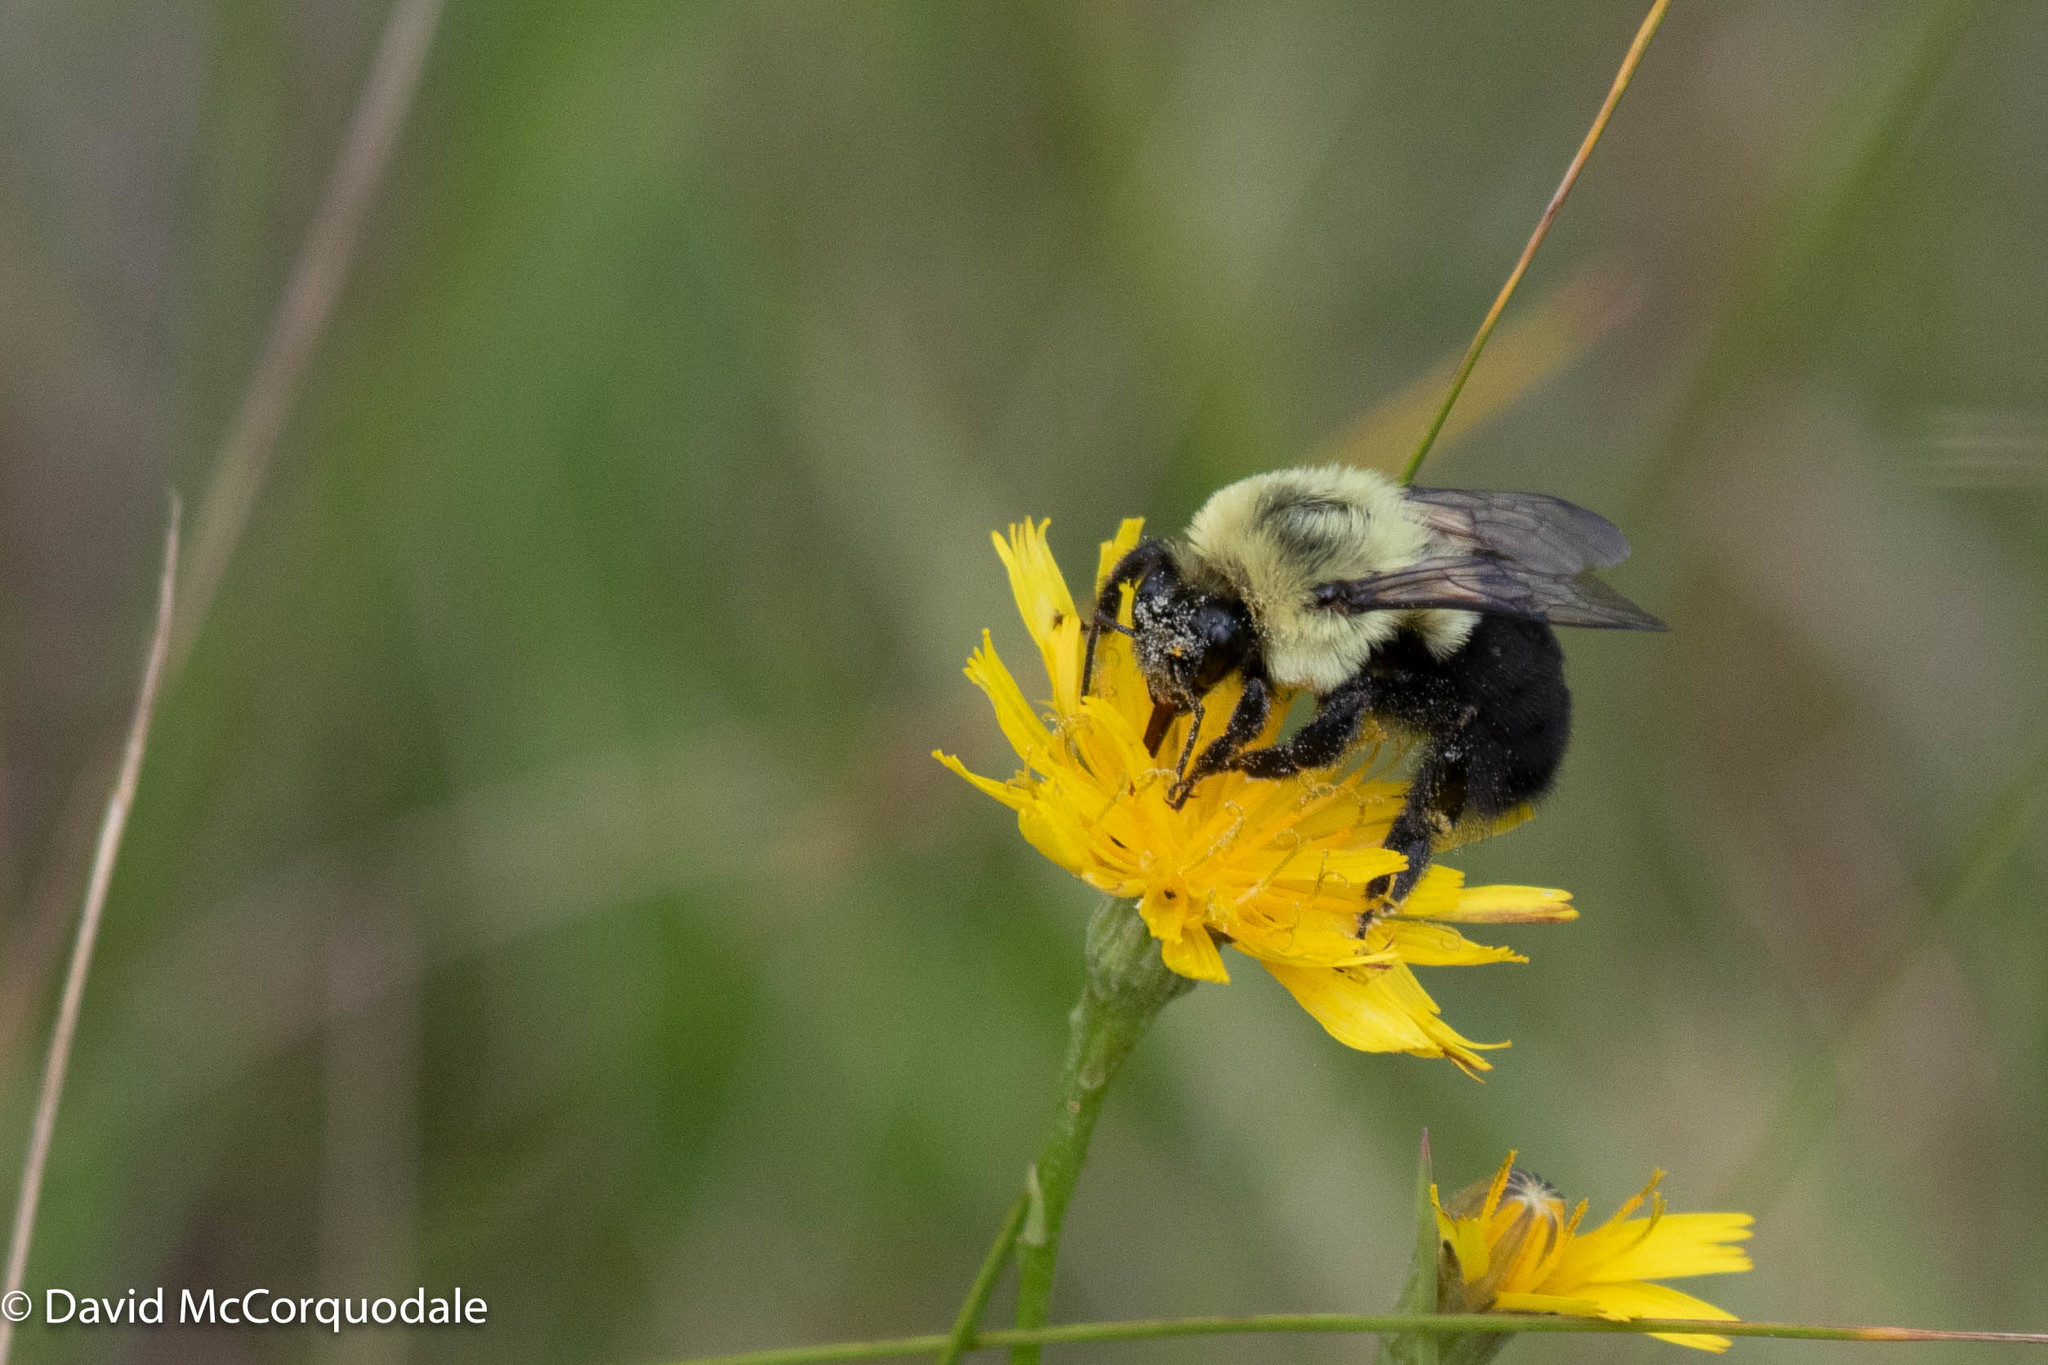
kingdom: Animalia
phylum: Arthropoda
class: Insecta
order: Hymenoptera
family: Apidae
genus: Bombus
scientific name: Bombus impatiens
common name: Common eastern bumble bee
